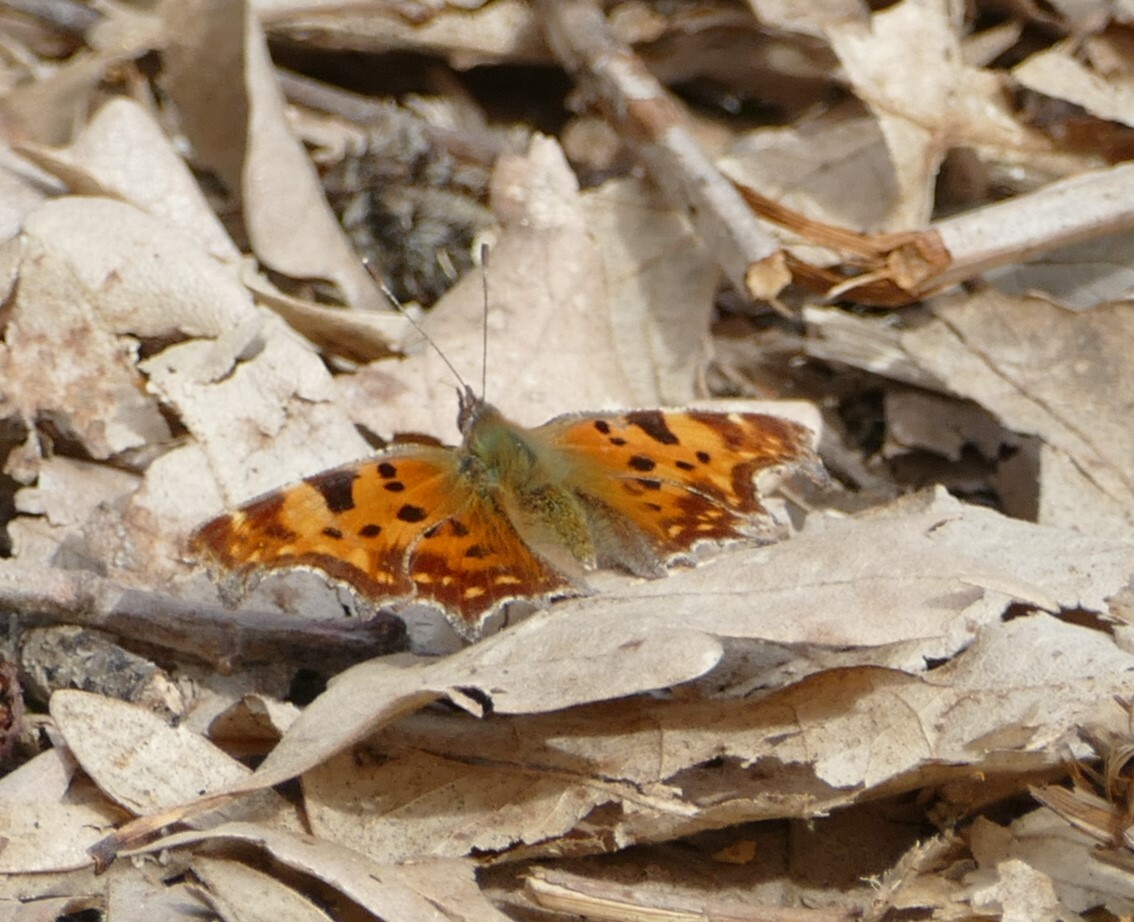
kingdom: Animalia
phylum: Arthropoda
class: Insecta
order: Lepidoptera
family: Nymphalidae
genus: Polygonia
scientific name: Polygonia c-album
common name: Comma
